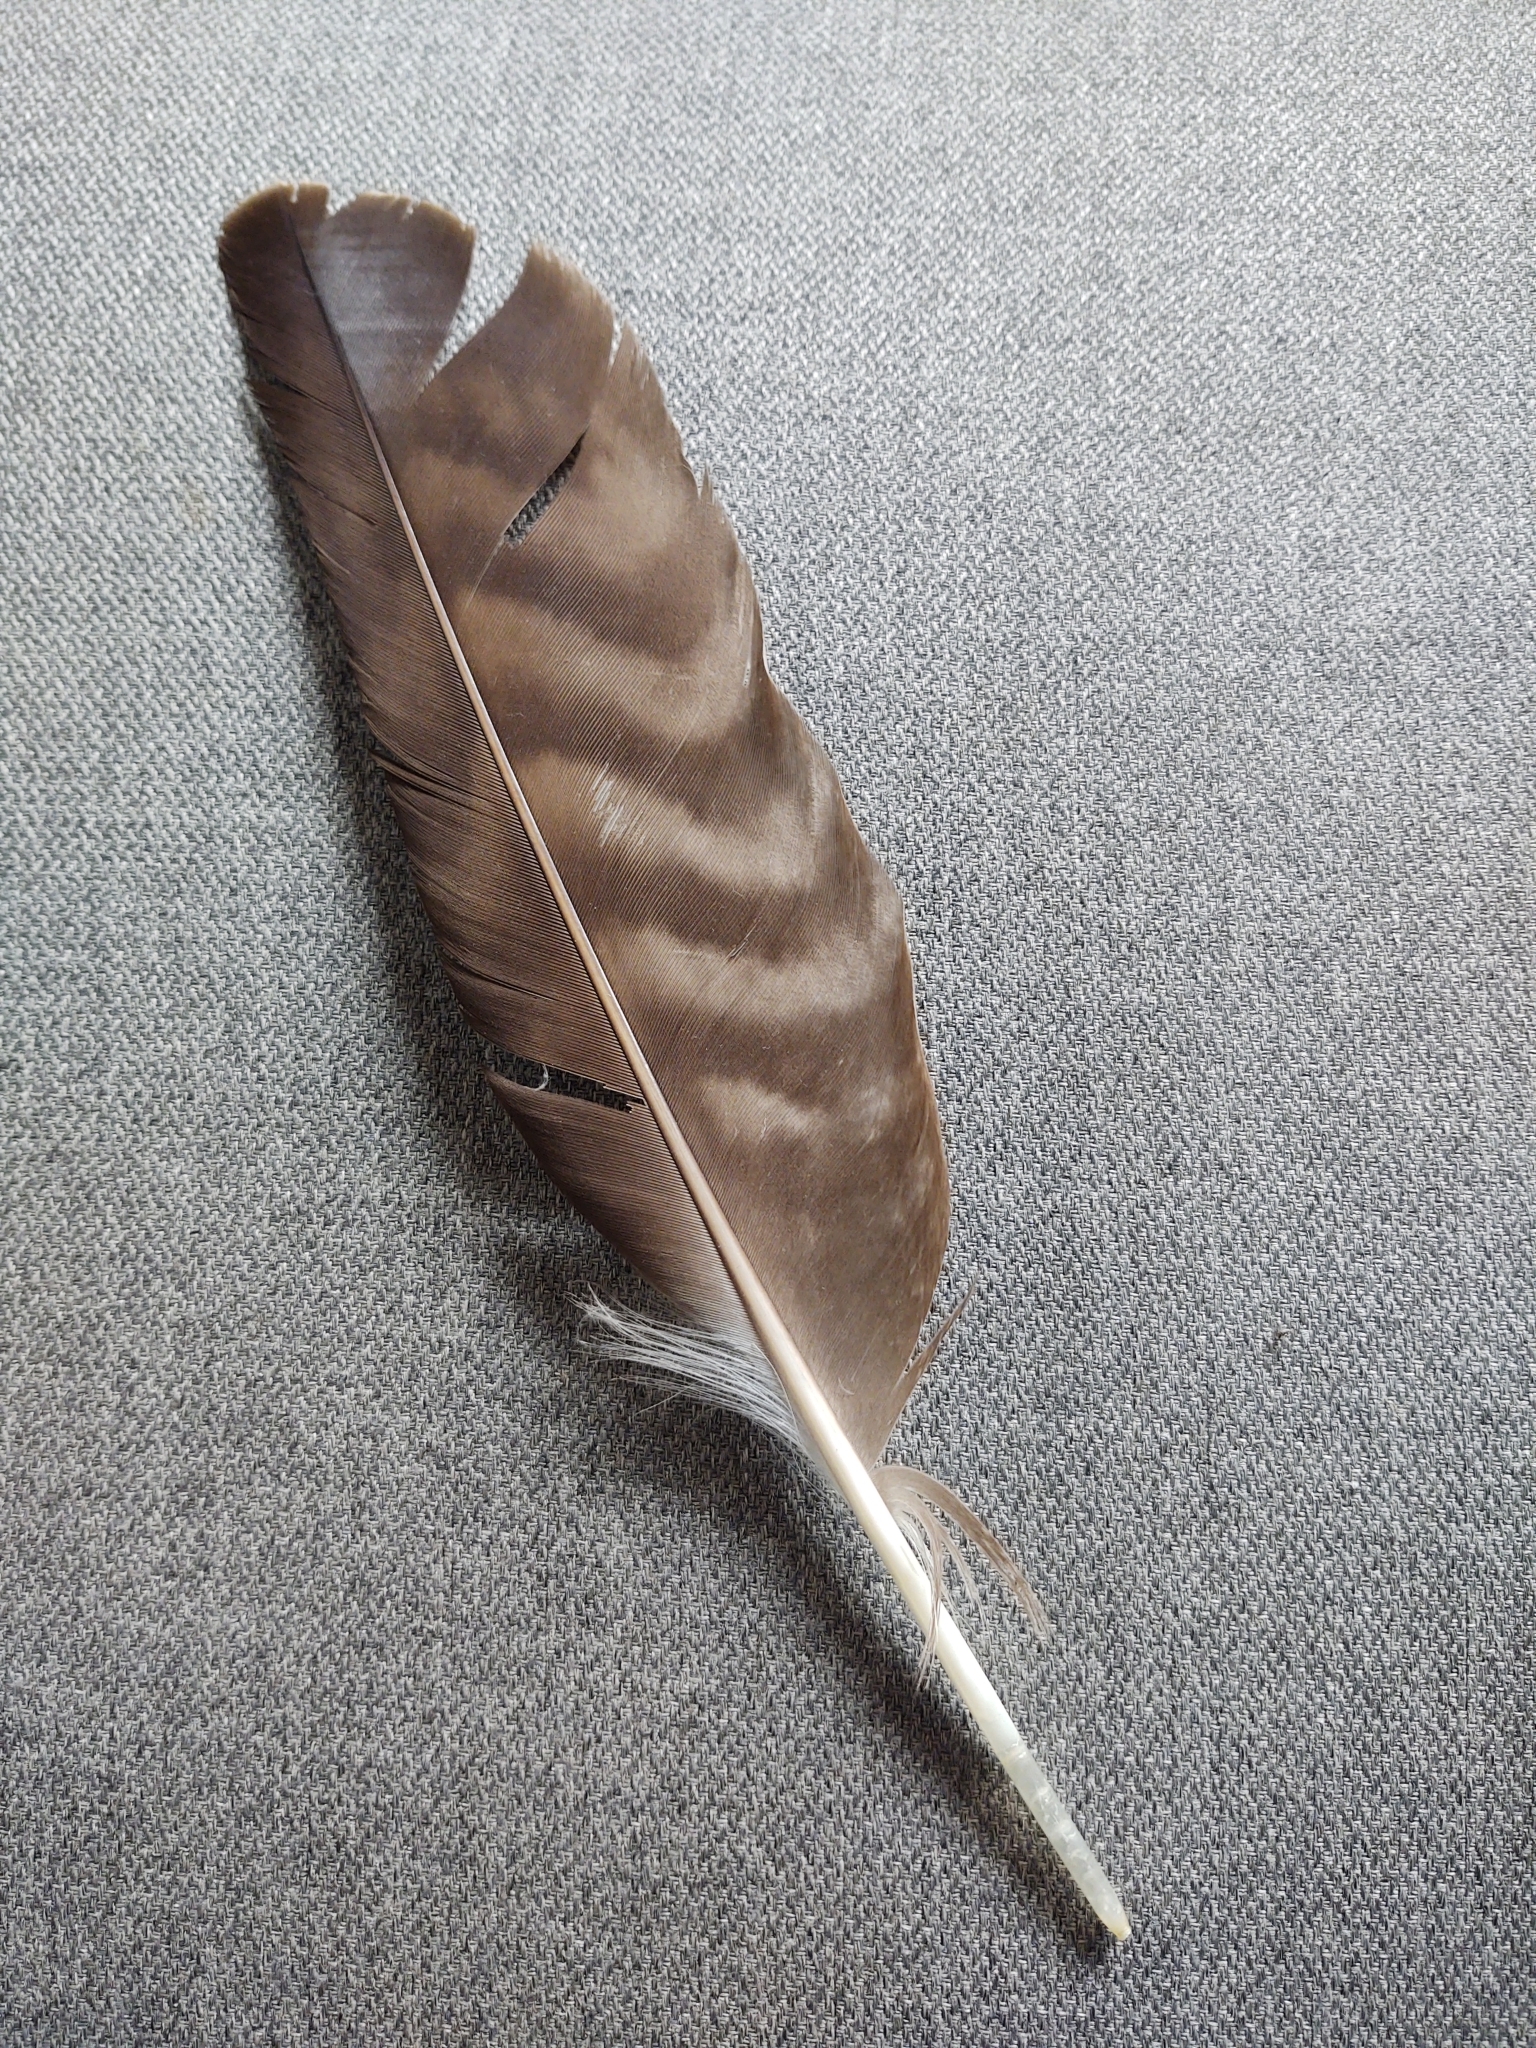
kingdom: Animalia
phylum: Chordata
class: Aves
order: Accipitriformes
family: Accipitridae
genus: Buteo
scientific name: Buteo buteo
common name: Common buzzard
